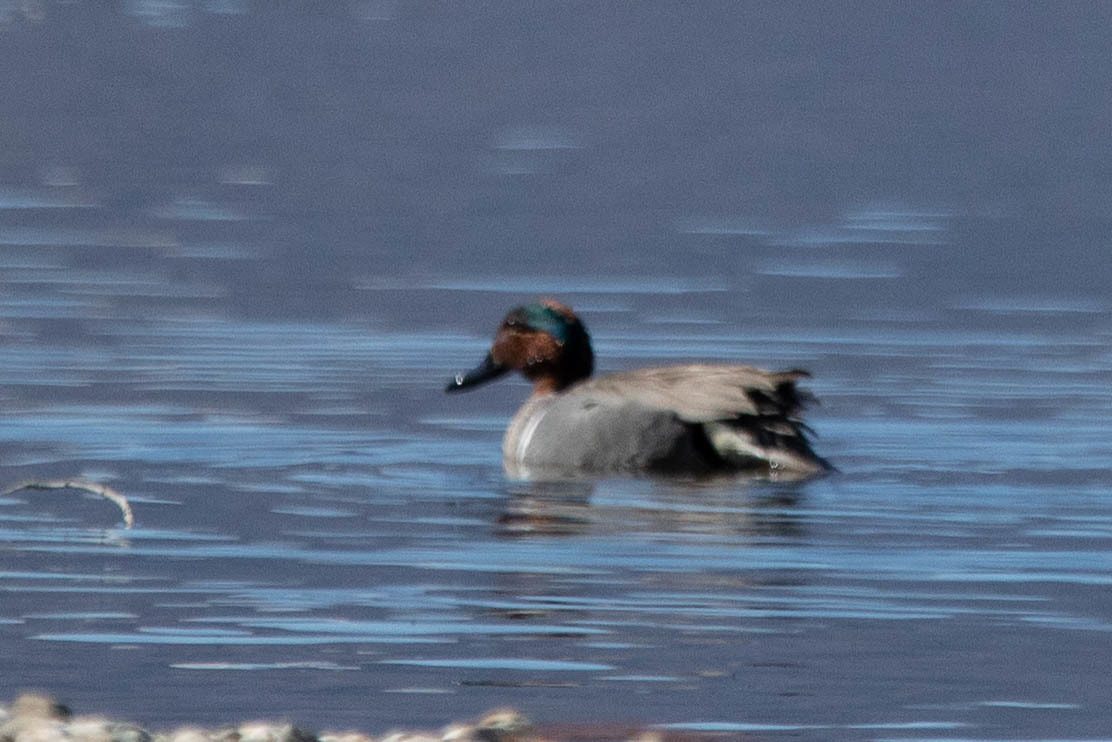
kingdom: Animalia
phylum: Chordata
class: Aves
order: Anseriformes
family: Anatidae
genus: Anas
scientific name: Anas carolinensis
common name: Green-winged teal
